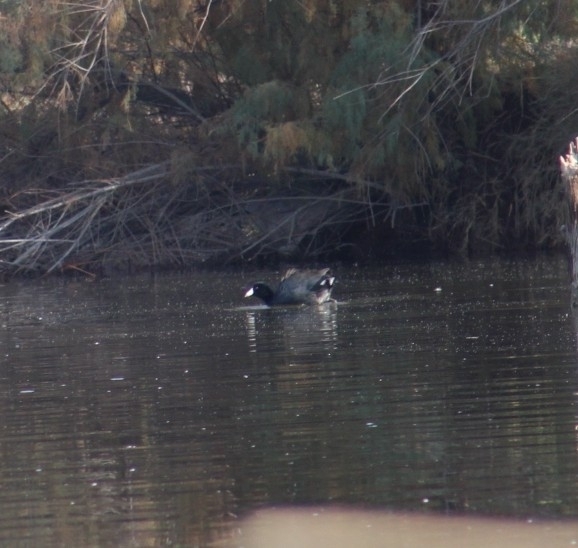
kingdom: Animalia
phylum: Chordata
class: Aves
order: Gruiformes
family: Rallidae
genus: Fulica
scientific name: Fulica americana
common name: American coot
